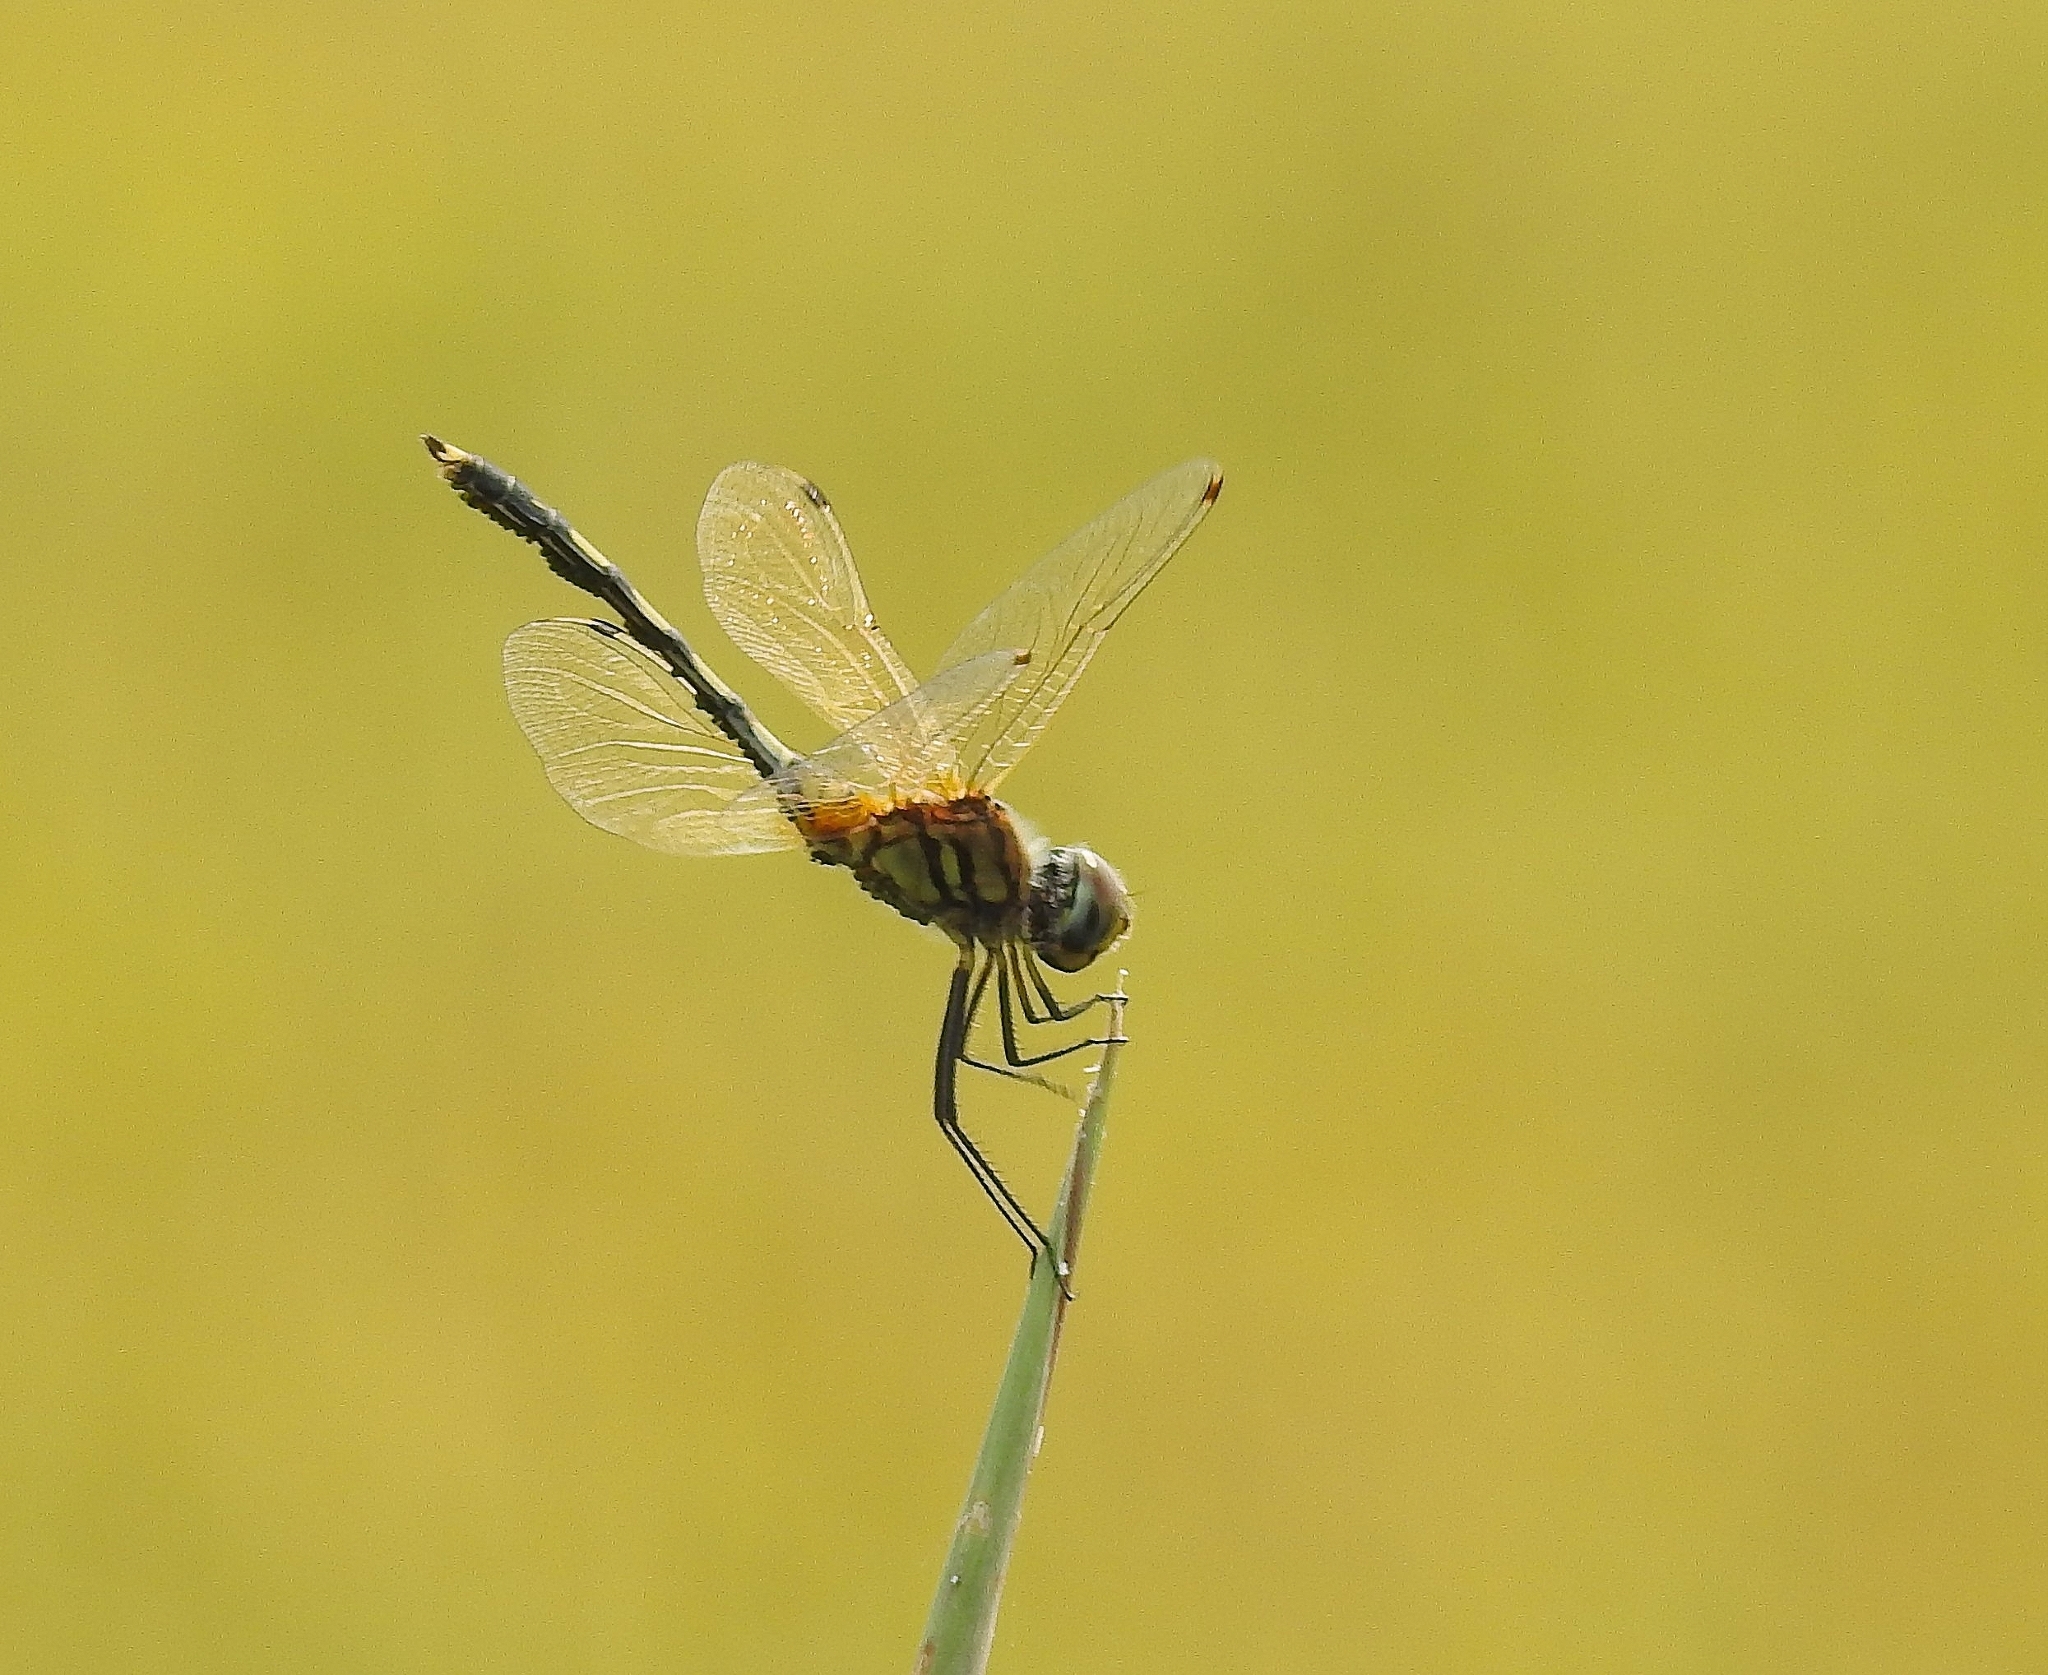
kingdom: Animalia
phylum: Arthropoda
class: Insecta
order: Odonata
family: Libellulidae
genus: Trithemis
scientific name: Trithemis pallidinervis
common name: Dancing dropwing
